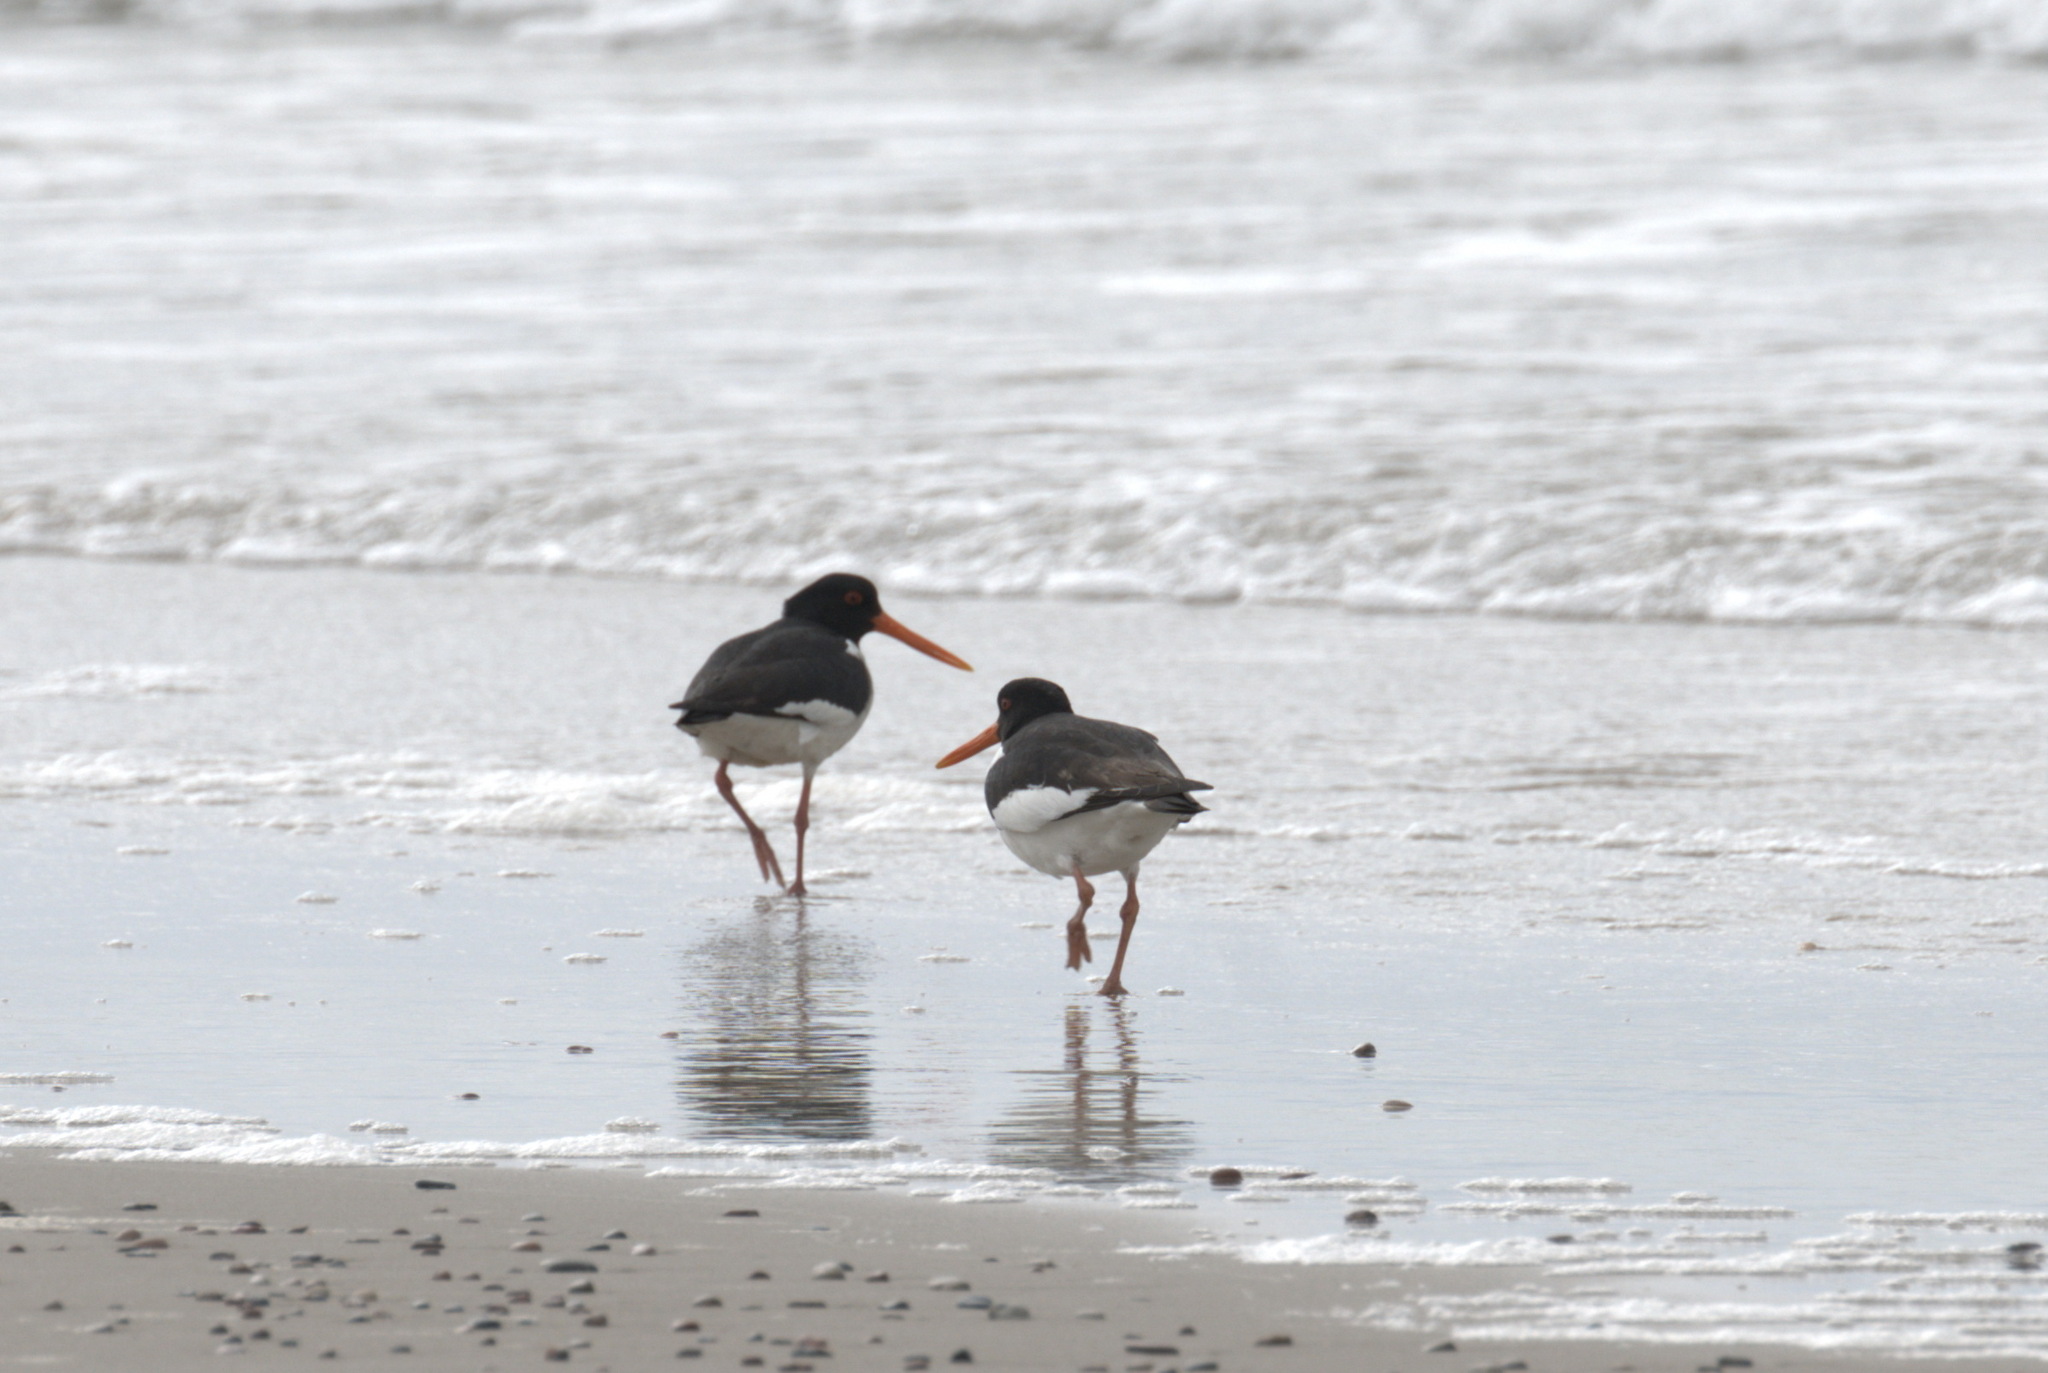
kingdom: Animalia
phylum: Chordata
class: Aves
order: Charadriiformes
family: Haematopodidae
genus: Haematopus
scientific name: Haematopus ostralegus
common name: Eurasian oystercatcher
